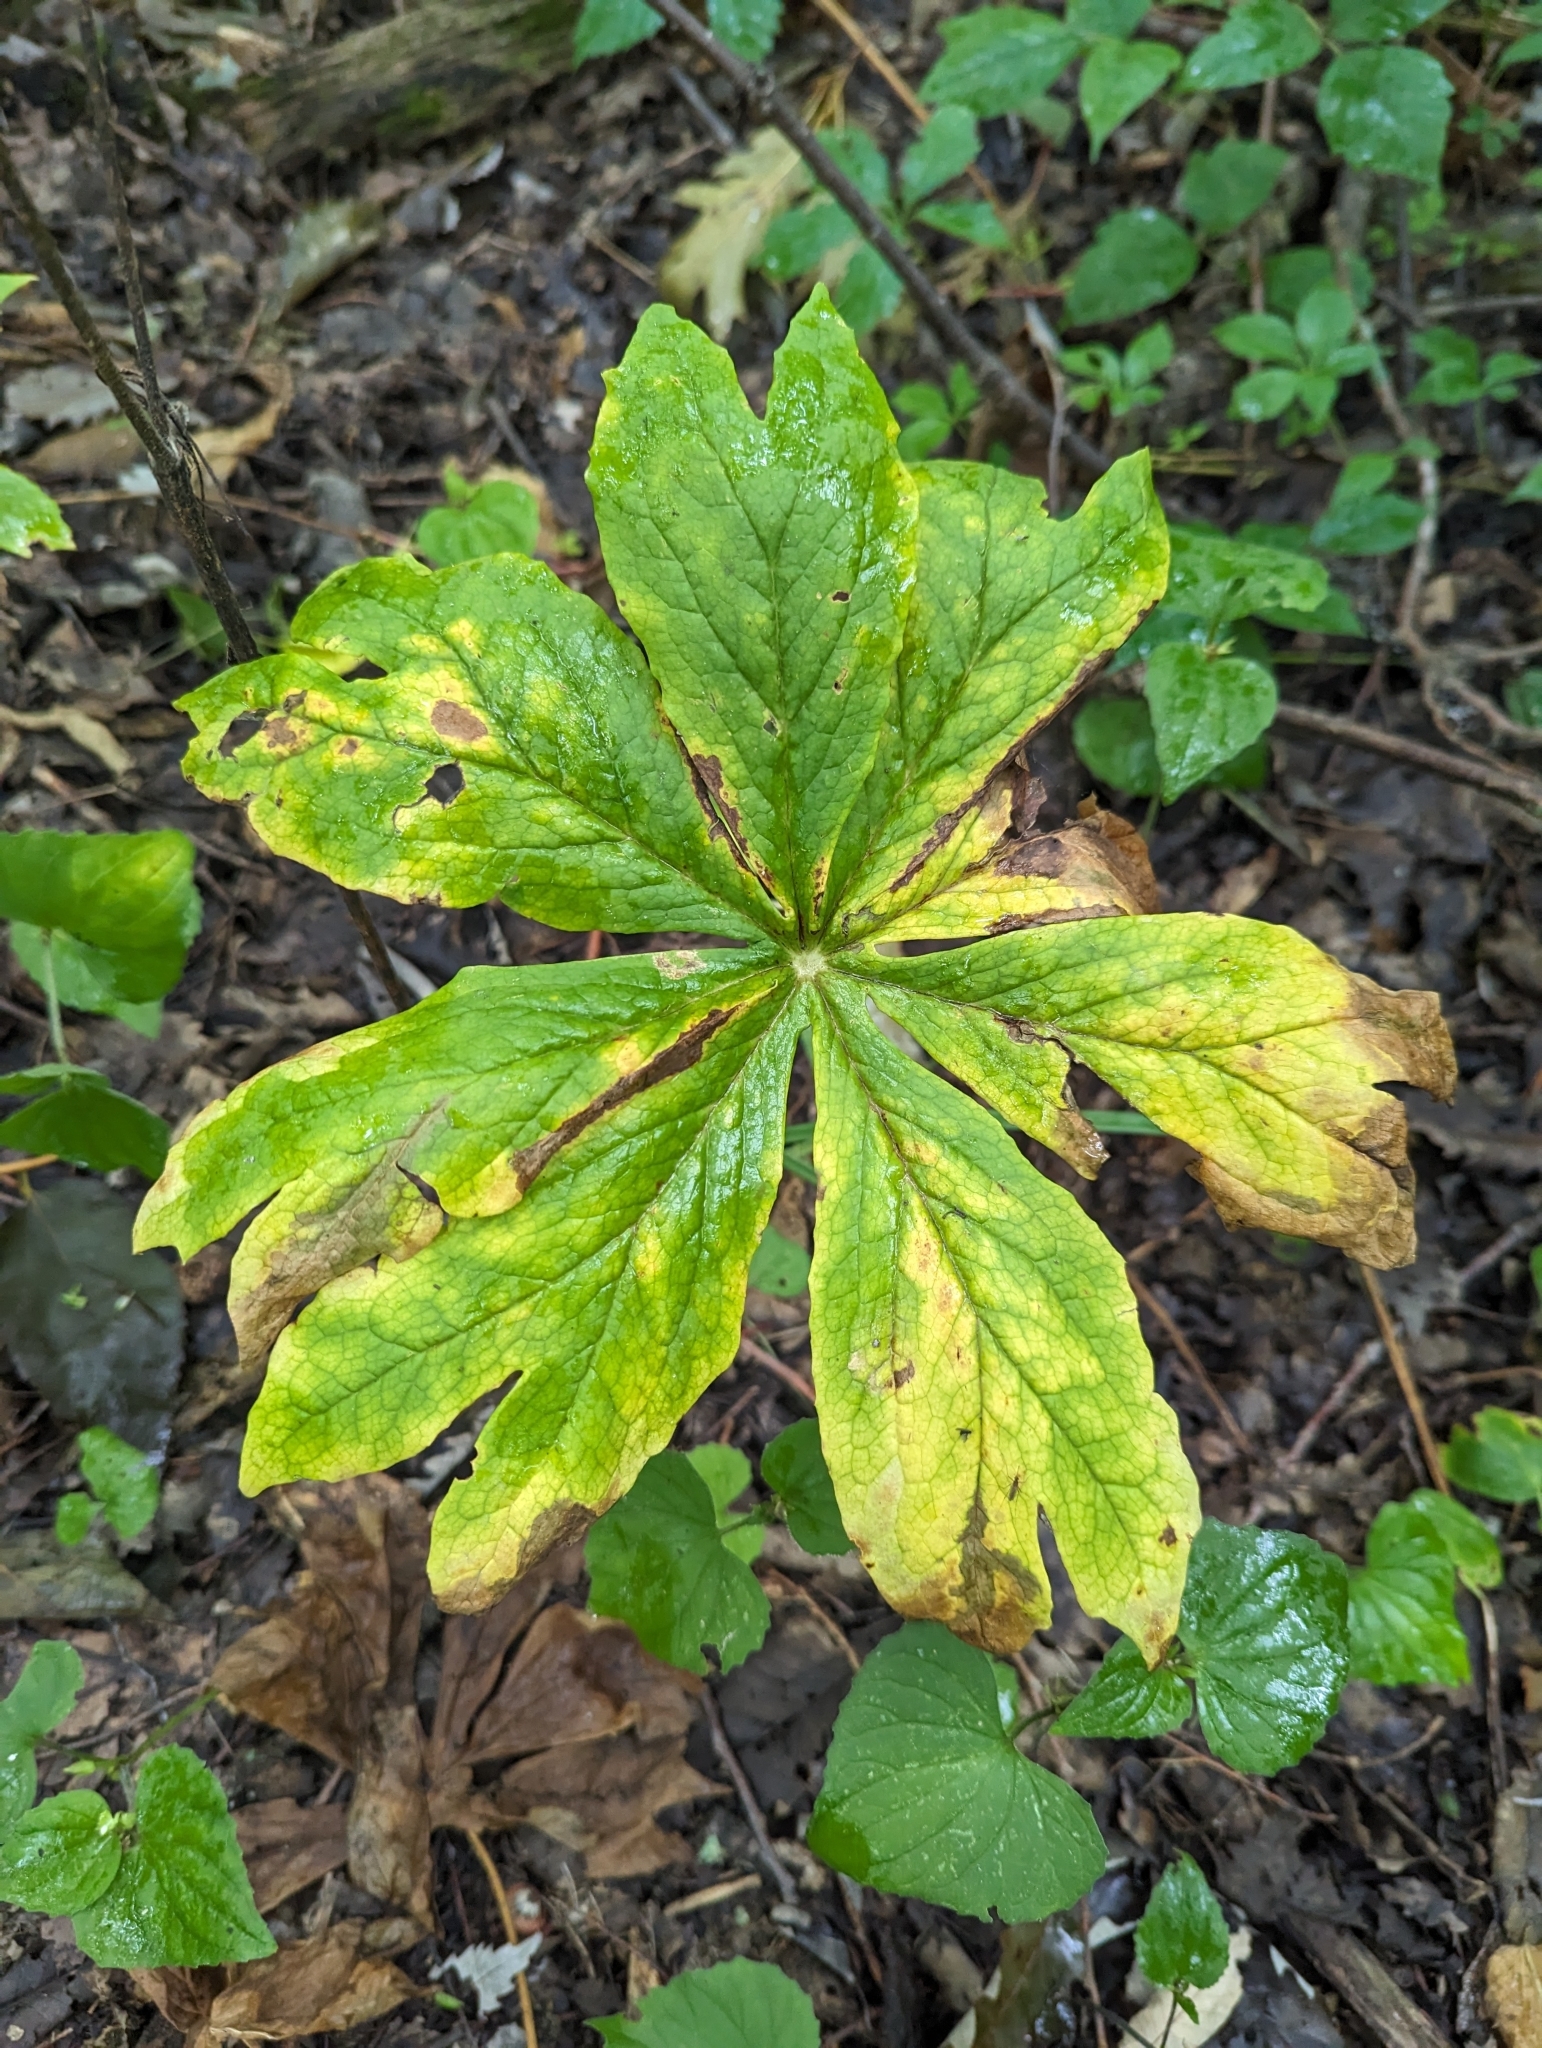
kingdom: Plantae
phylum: Tracheophyta
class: Magnoliopsida
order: Ranunculales
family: Berberidaceae
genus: Podophyllum
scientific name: Podophyllum peltatum
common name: Wild mandrake
